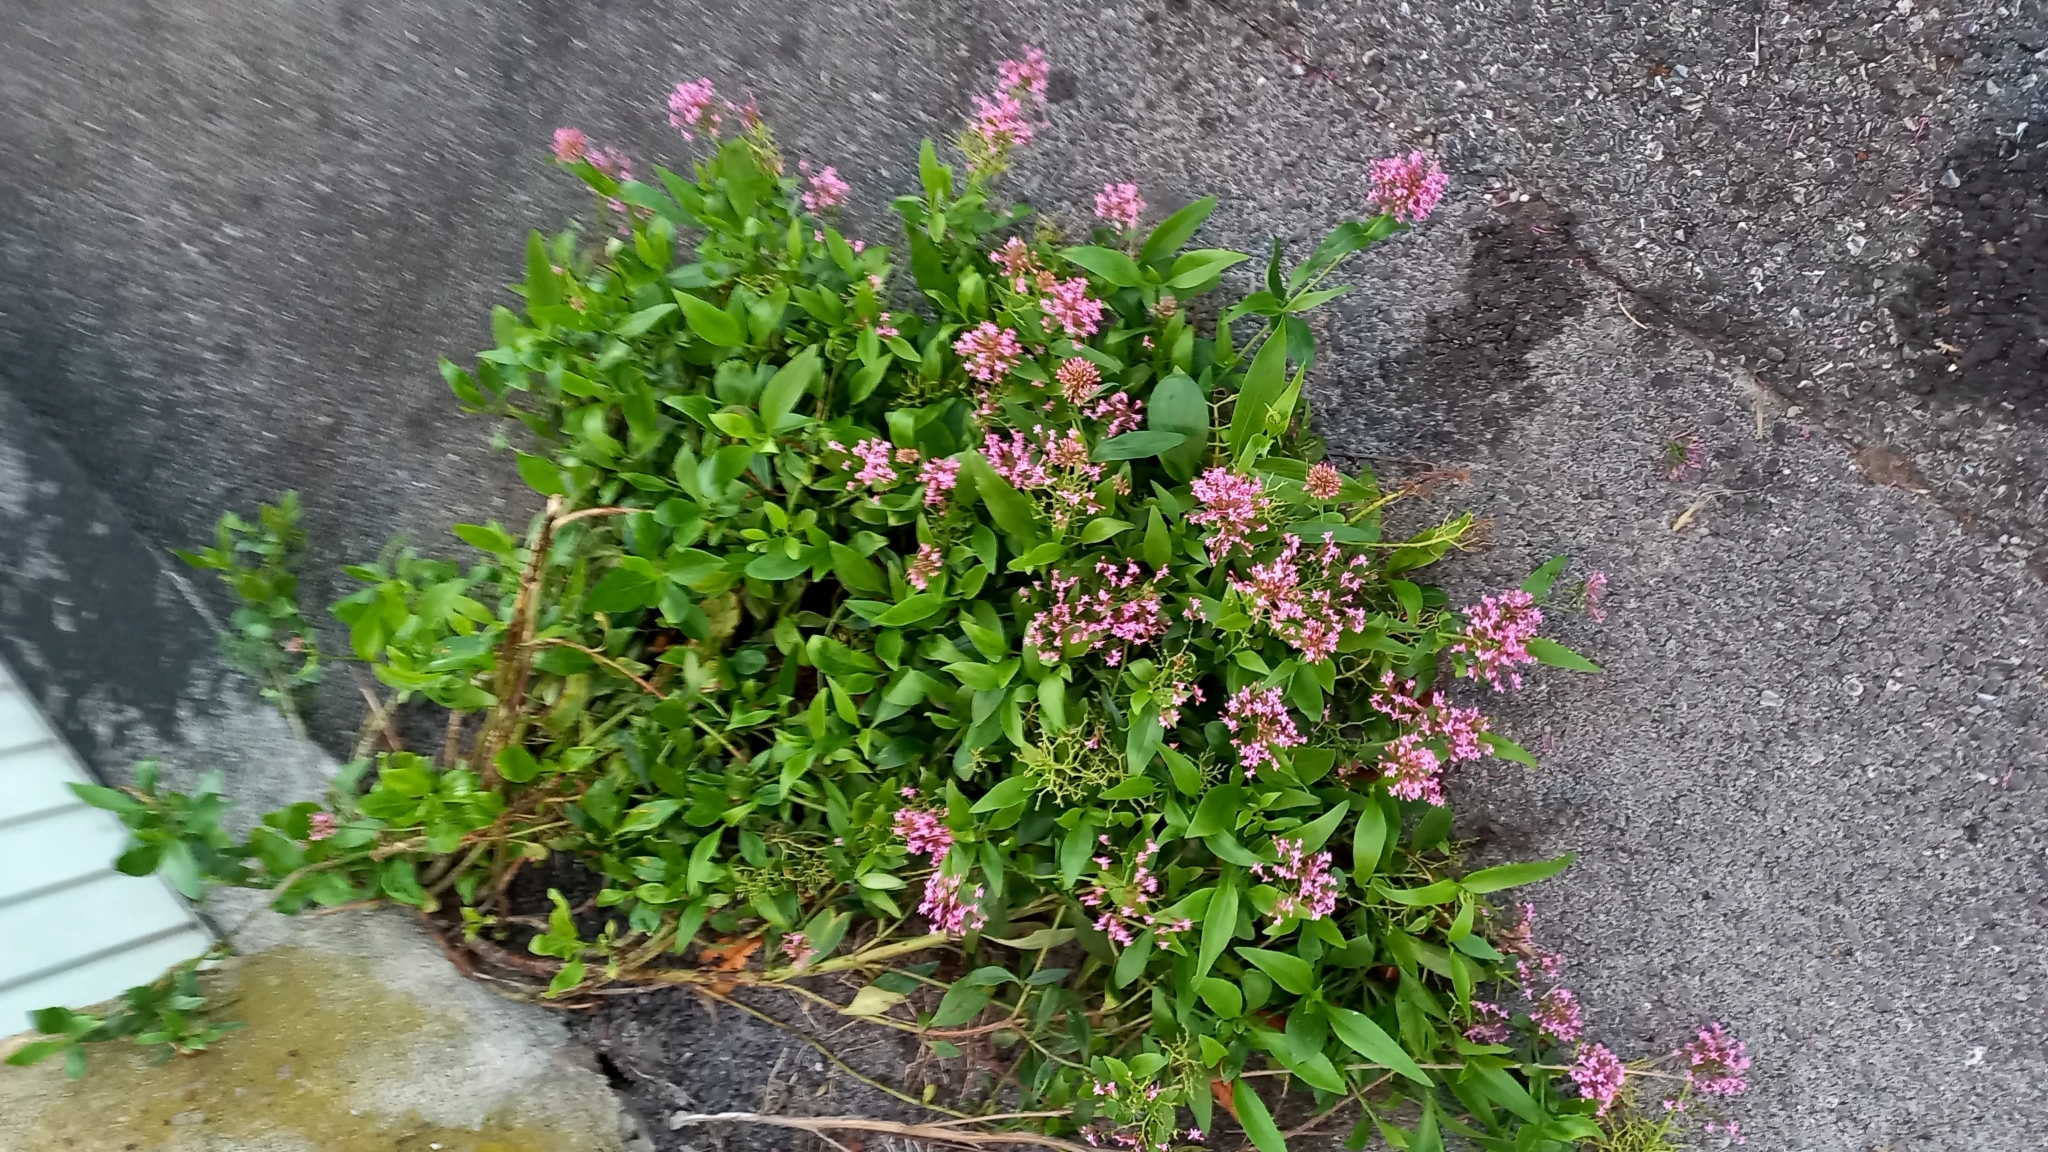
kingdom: Plantae
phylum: Tracheophyta
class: Magnoliopsida
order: Dipsacales
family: Caprifoliaceae
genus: Centranthus
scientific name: Centranthus ruber
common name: Red valerian
